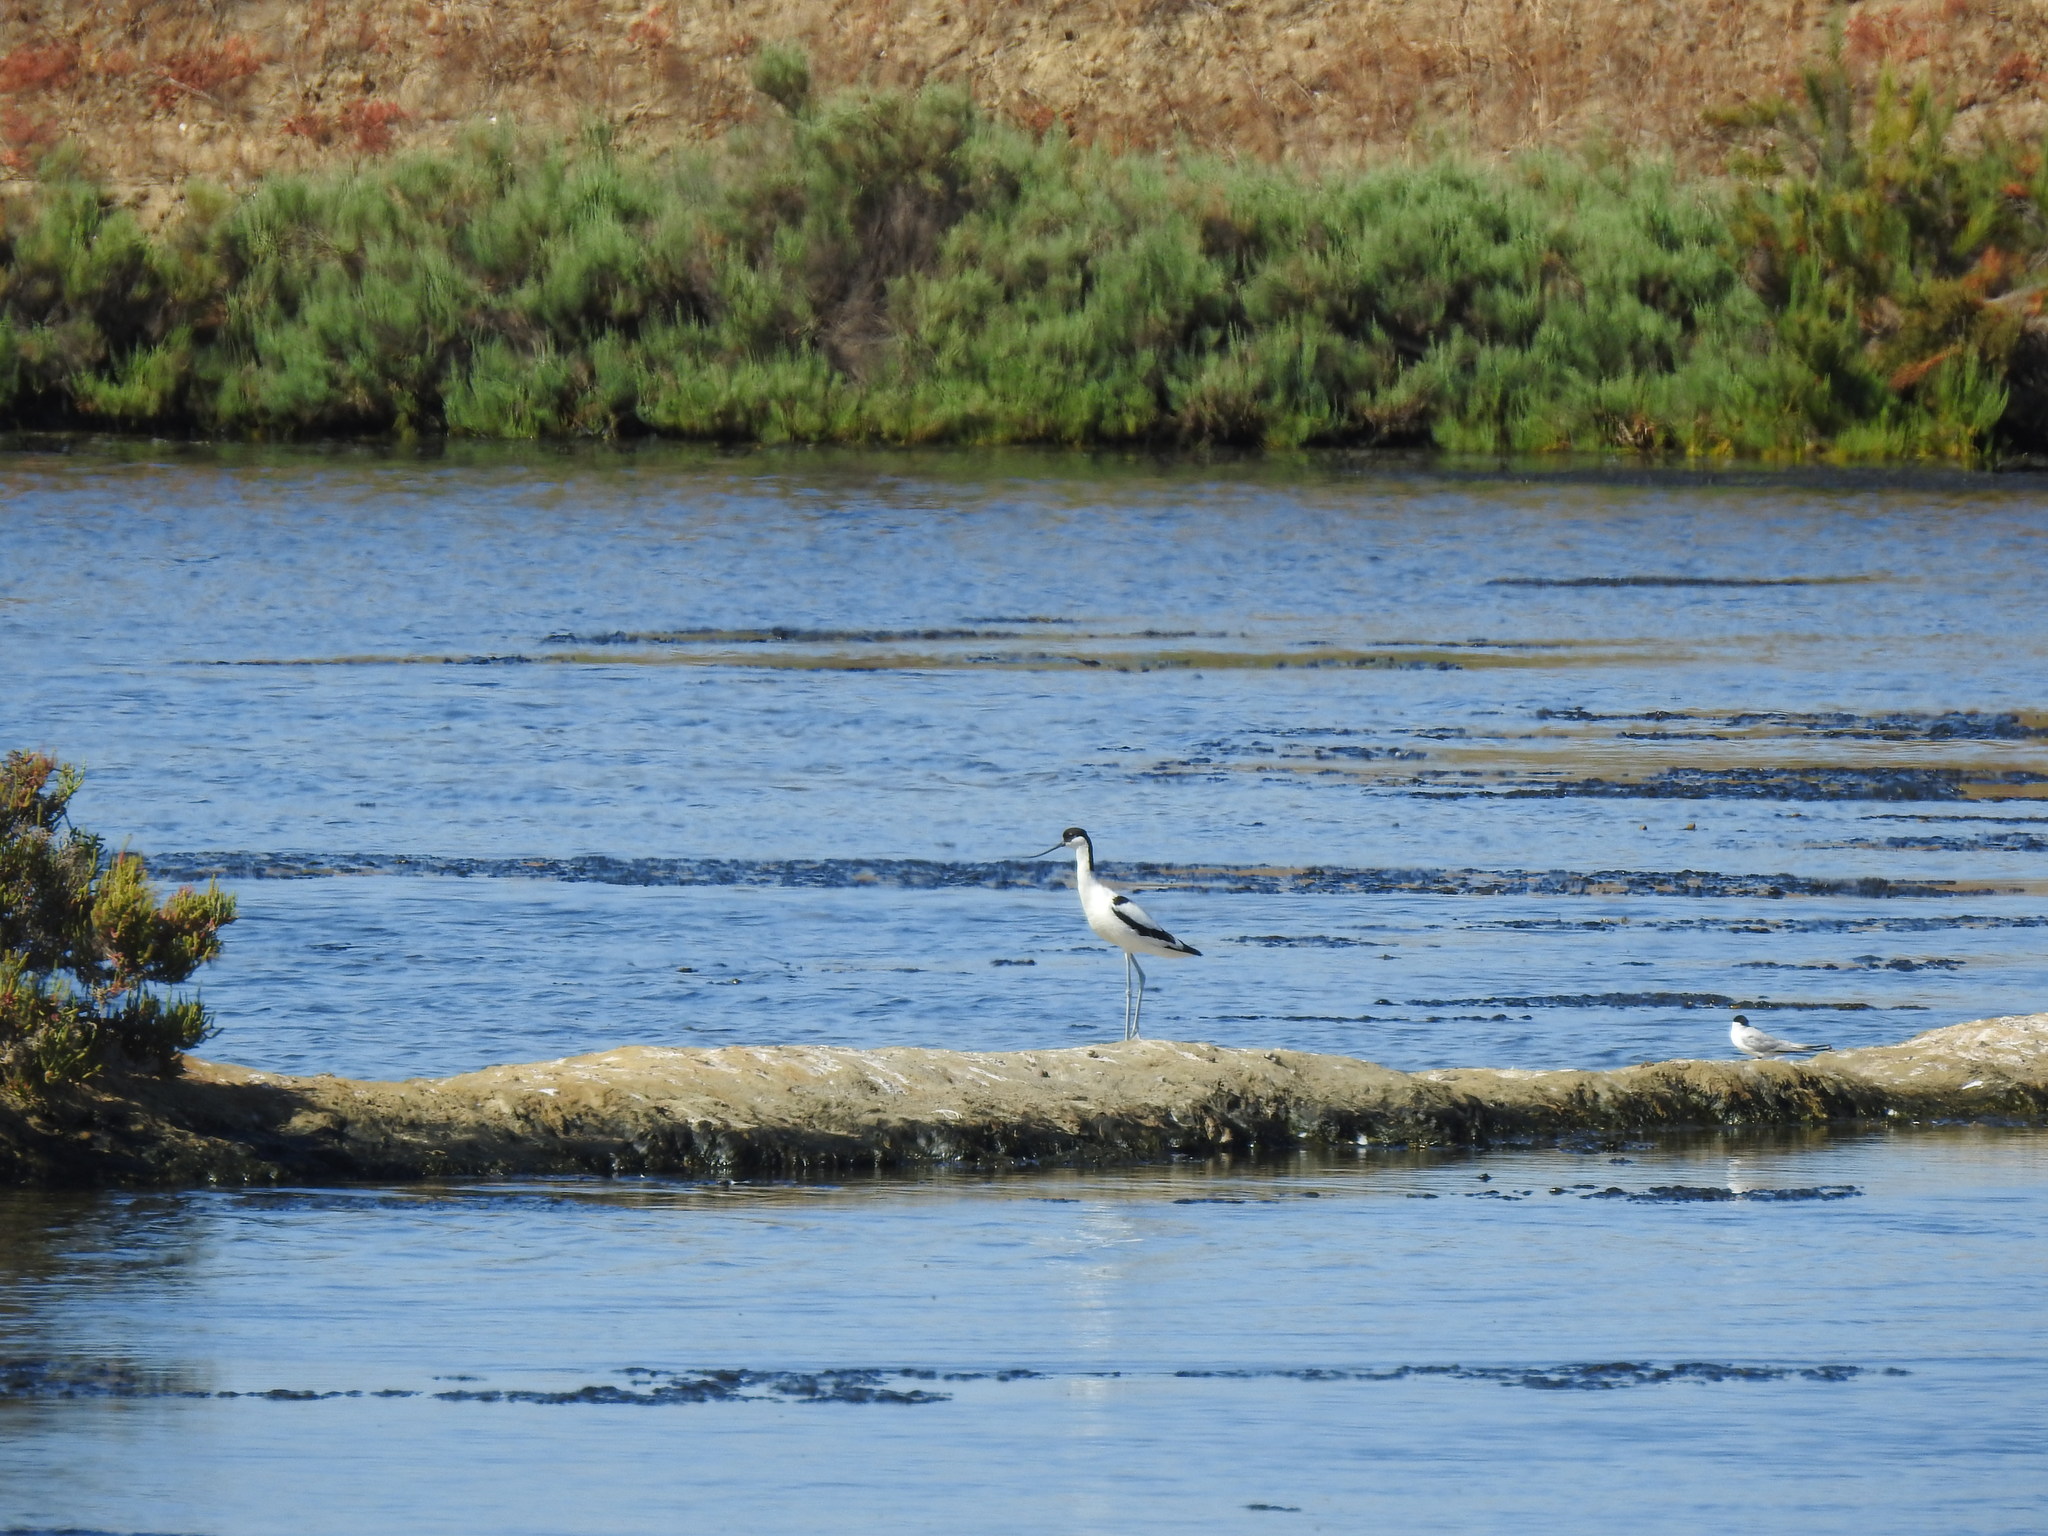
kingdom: Animalia
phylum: Chordata
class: Aves
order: Charadriiformes
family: Recurvirostridae
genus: Recurvirostra
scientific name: Recurvirostra avosetta
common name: Pied avocet
